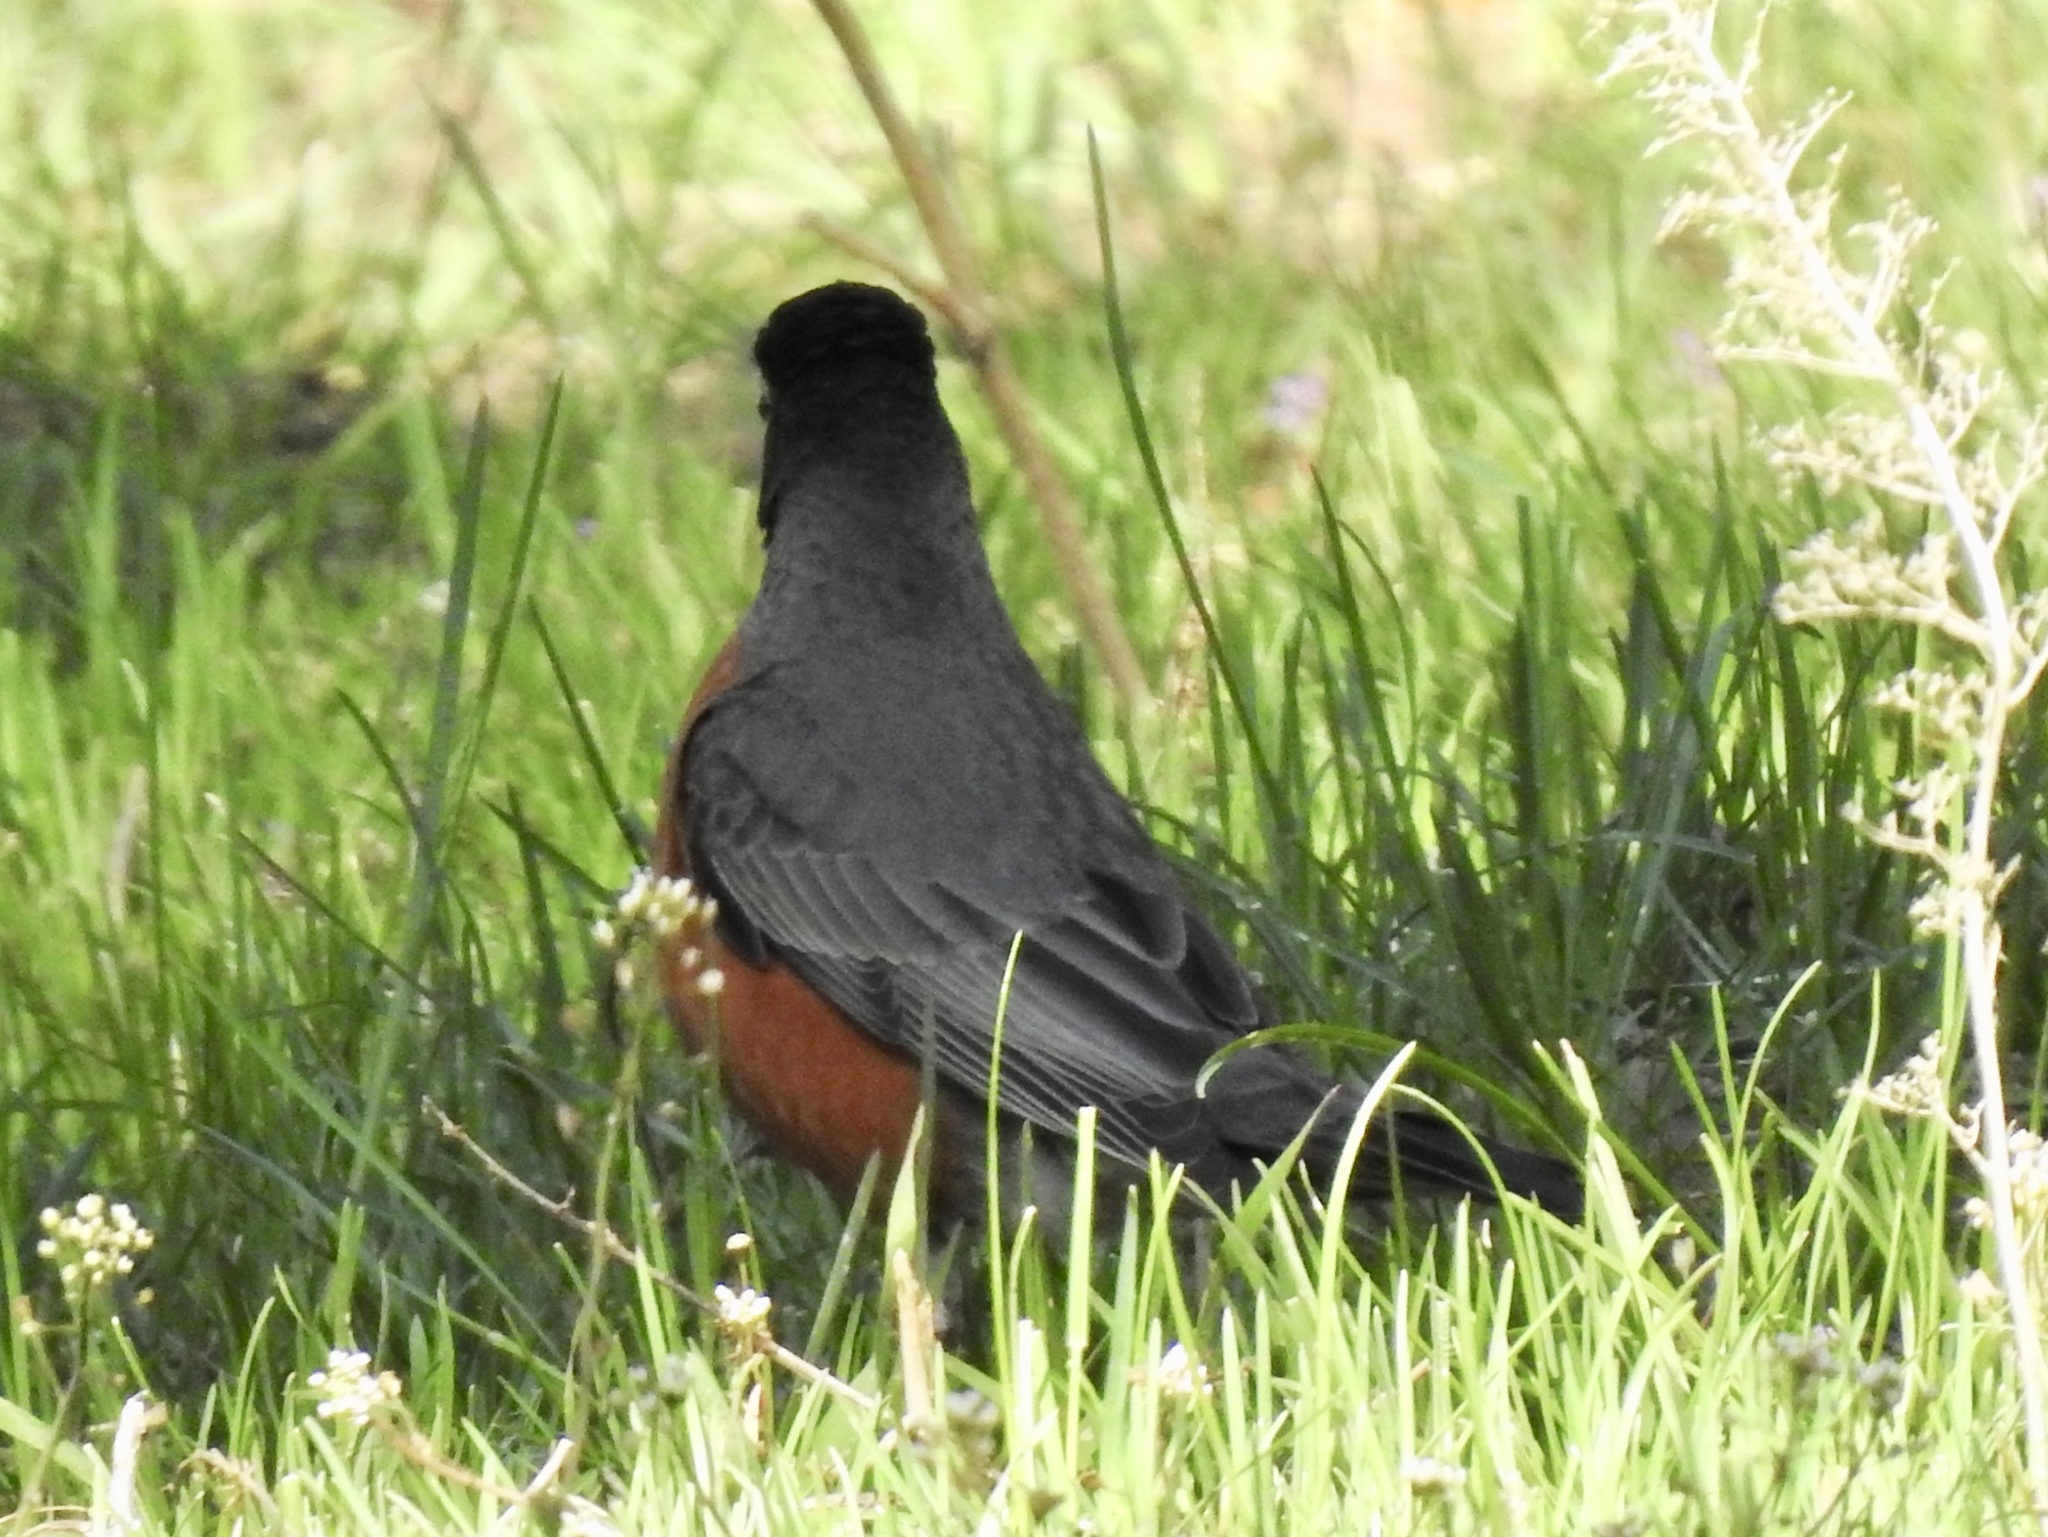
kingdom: Animalia
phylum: Chordata
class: Aves
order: Passeriformes
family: Turdidae
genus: Turdus
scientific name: Turdus migratorius
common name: American robin
